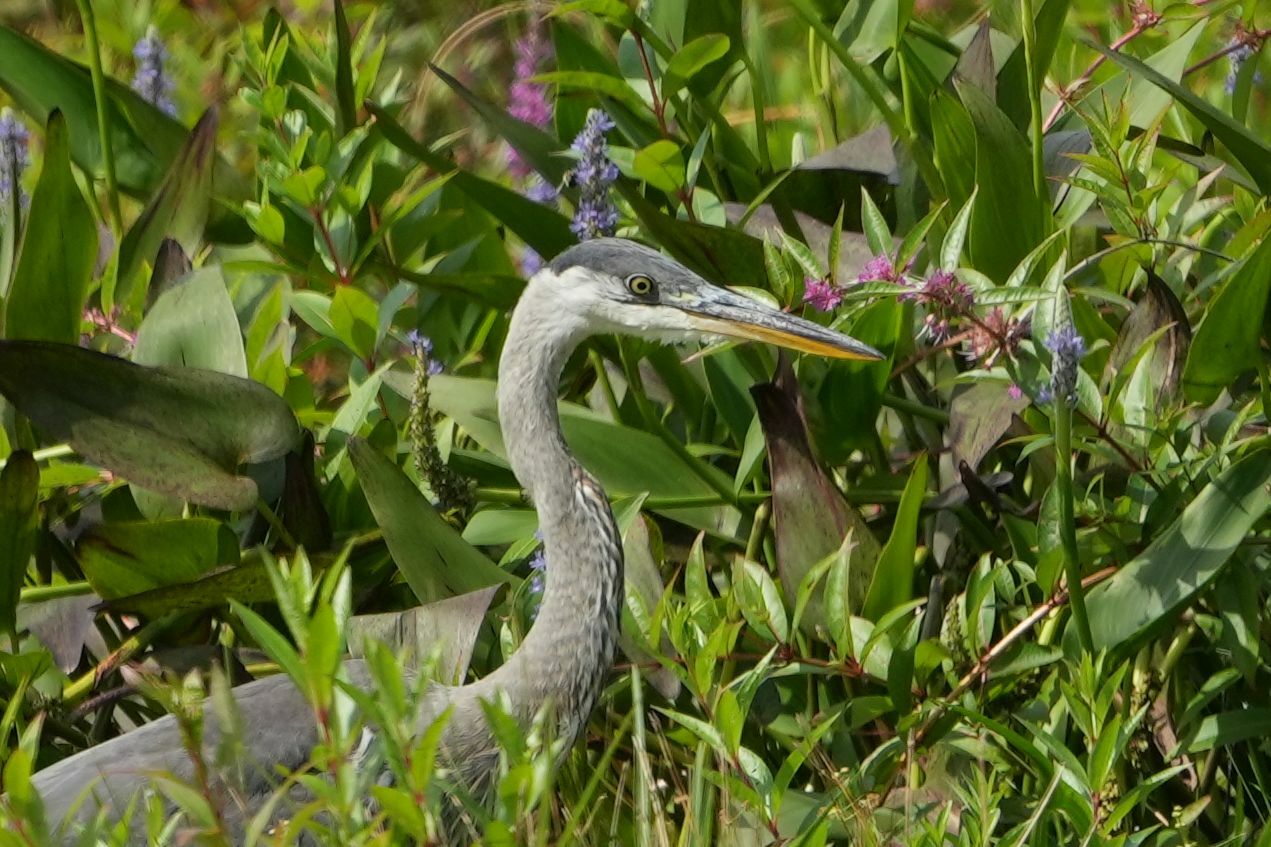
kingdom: Animalia
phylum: Chordata
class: Aves
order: Pelecaniformes
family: Ardeidae
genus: Ardea
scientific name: Ardea herodias
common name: Great blue heron
